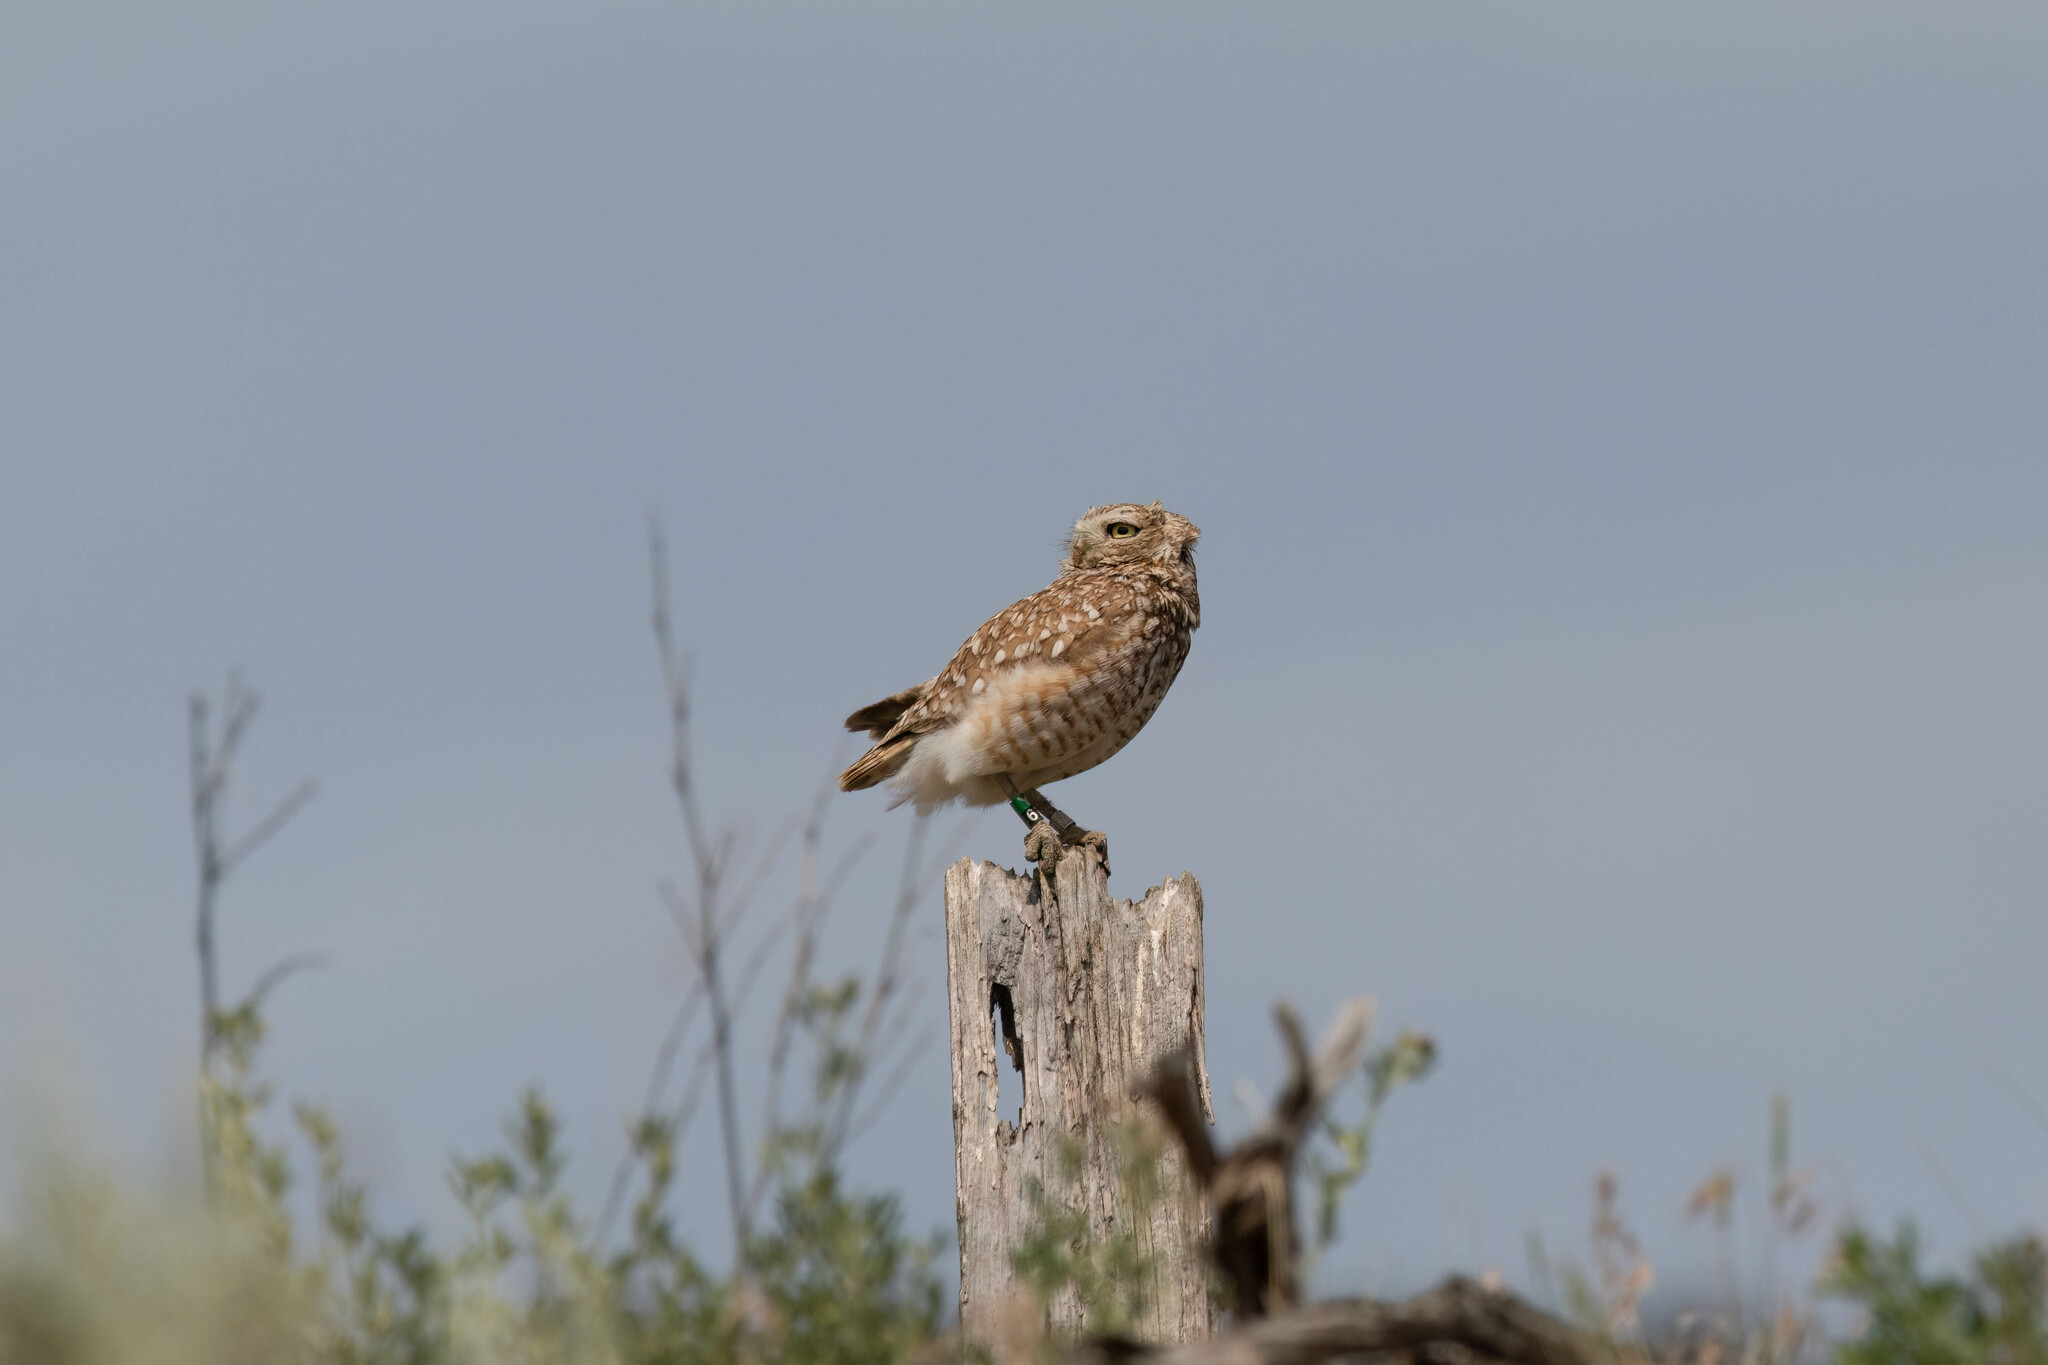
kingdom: Animalia
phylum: Chordata
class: Aves
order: Strigiformes
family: Strigidae
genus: Athene
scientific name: Athene cunicularia
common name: Burrowing owl
